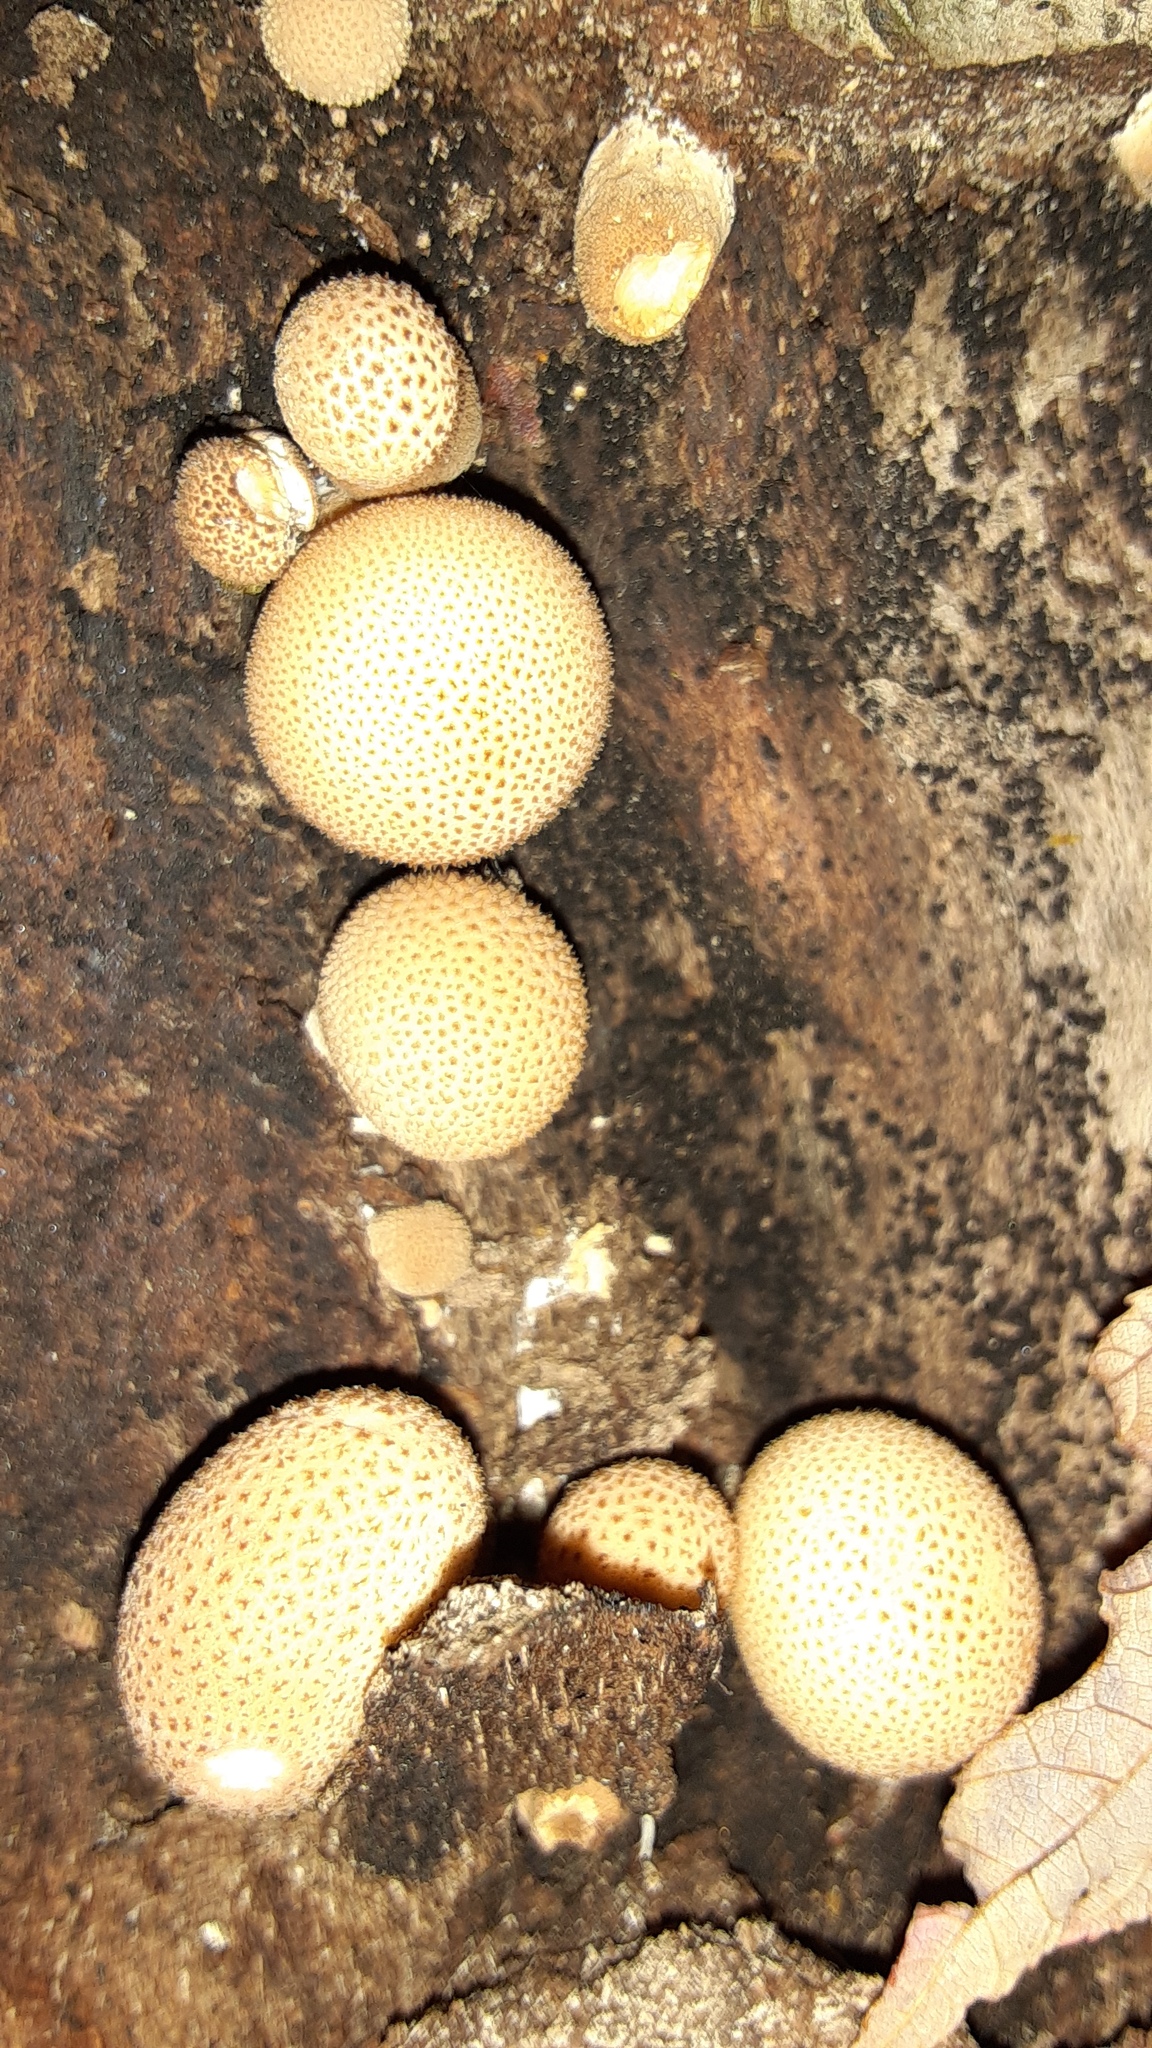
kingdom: Fungi
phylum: Basidiomycota
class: Agaricomycetes
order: Agaricales
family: Lycoperdaceae
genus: Apioperdon
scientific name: Apioperdon pyriforme
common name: Pear-shaped puffball
